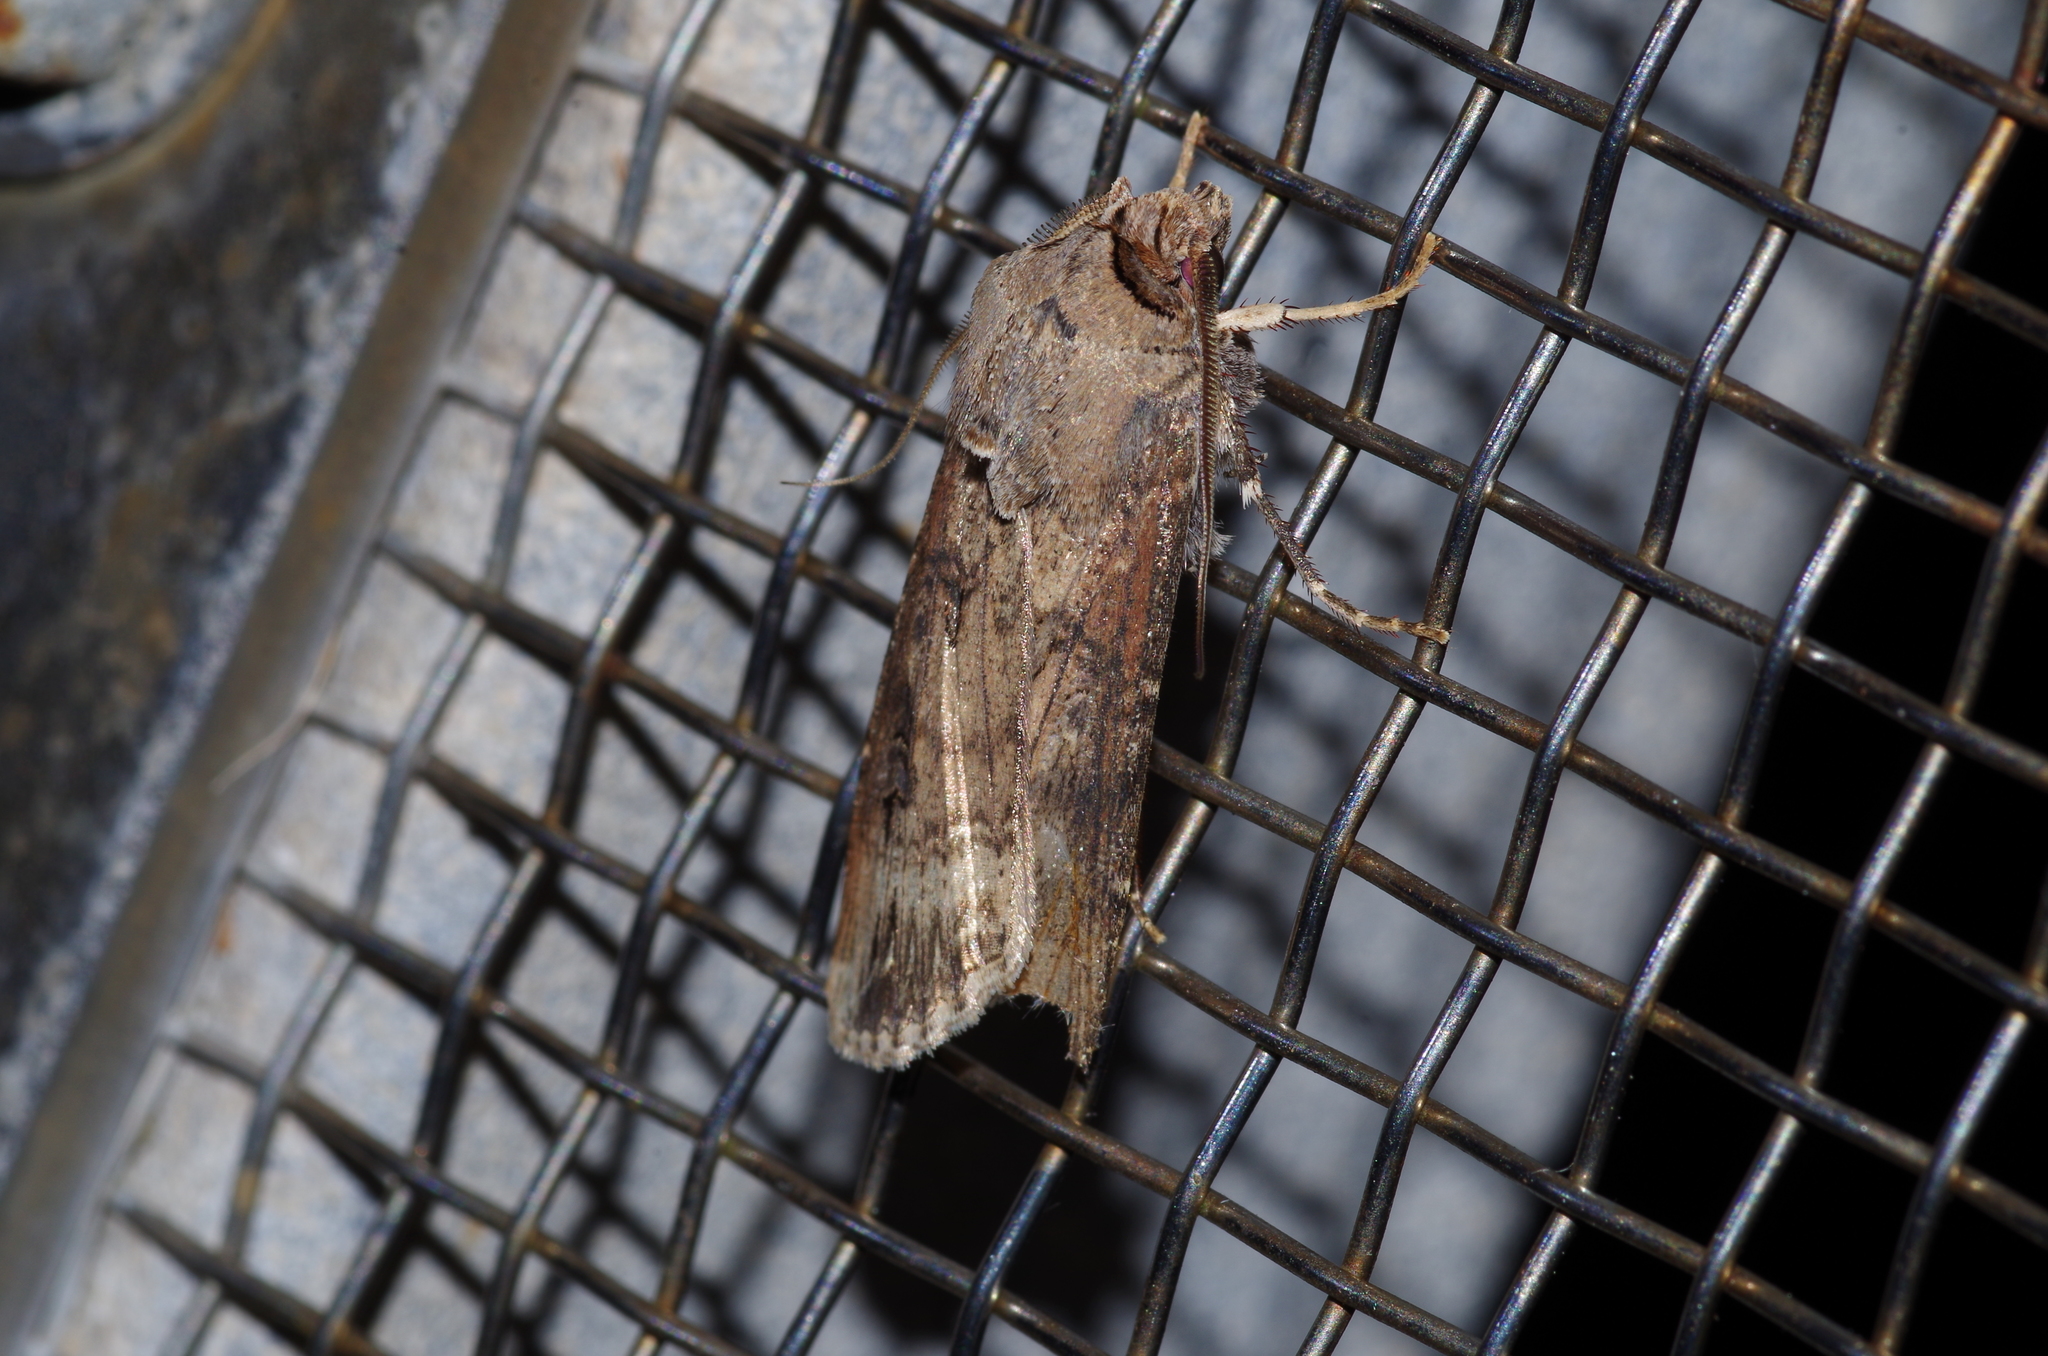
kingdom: Animalia
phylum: Arthropoda
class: Insecta
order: Lepidoptera
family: Noctuidae
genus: Agrotis
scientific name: Agrotis ipsilon
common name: Dark sword-grass
